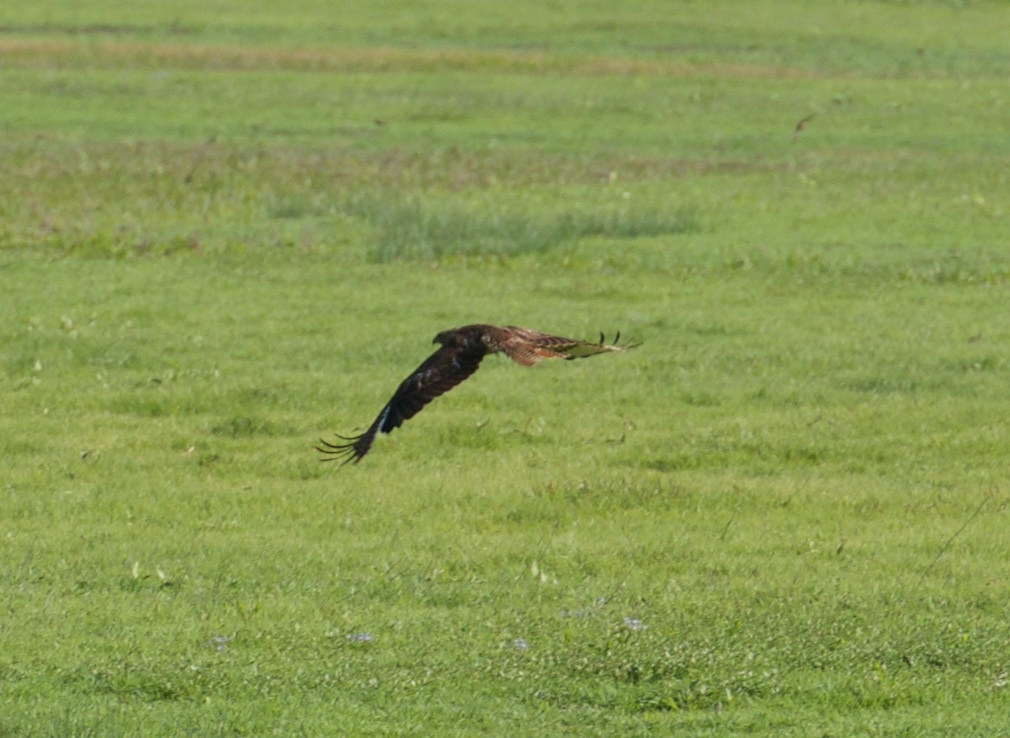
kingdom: Animalia
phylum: Chordata
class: Aves
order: Accipitriformes
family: Accipitridae
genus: Buteo
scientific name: Buteo jamaicensis
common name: Red-tailed hawk
